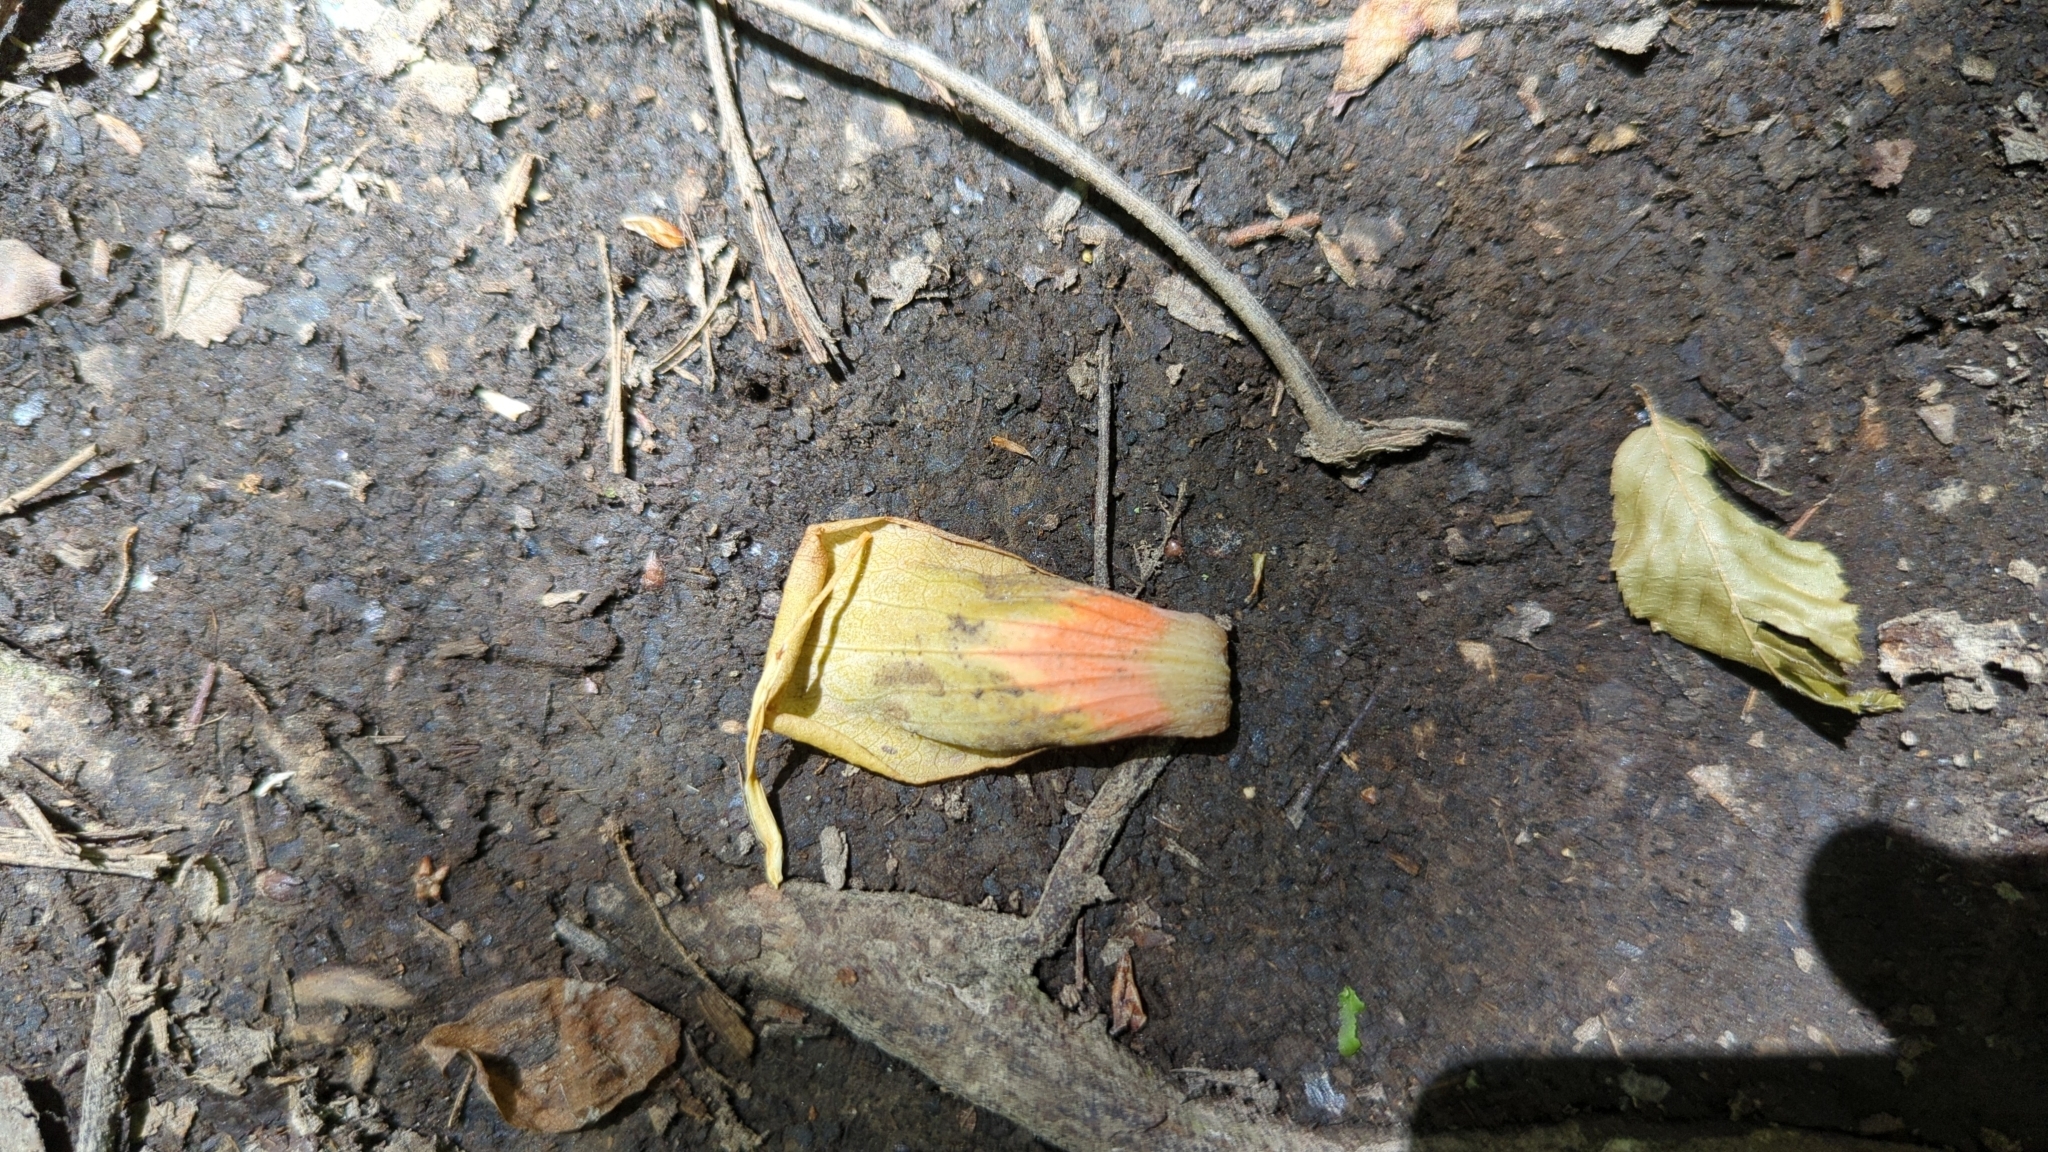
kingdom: Plantae
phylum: Tracheophyta
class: Magnoliopsida
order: Magnoliales
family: Magnoliaceae
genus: Liriodendron
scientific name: Liriodendron tulipifera
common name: Tulip tree
